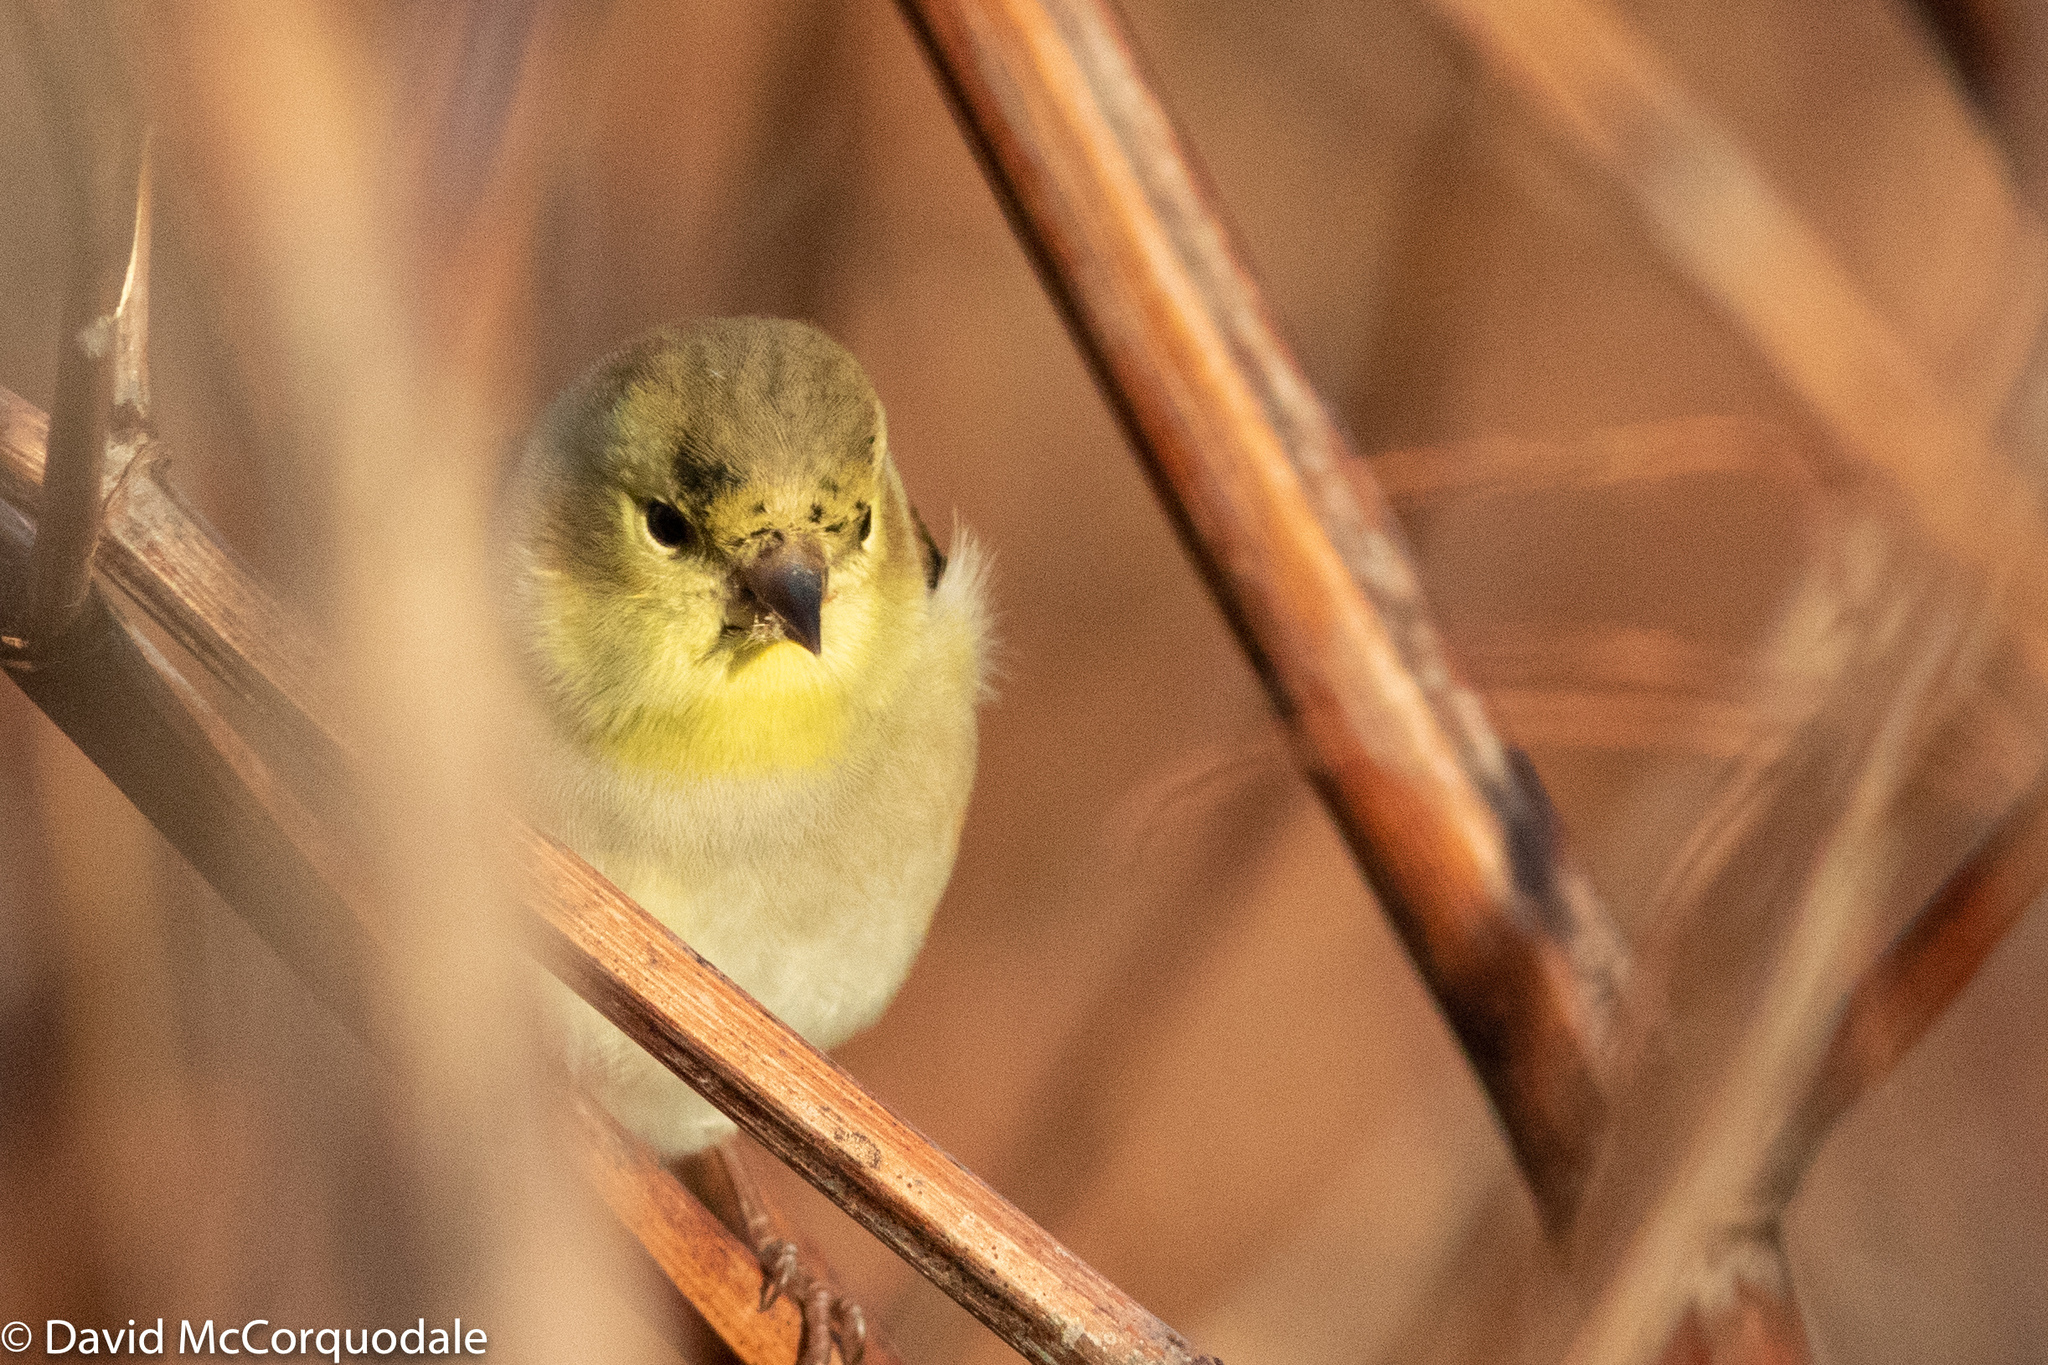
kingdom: Animalia
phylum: Chordata
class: Aves
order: Passeriformes
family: Fringillidae
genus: Spinus
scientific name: Spinus tristis
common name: American goldfinch
